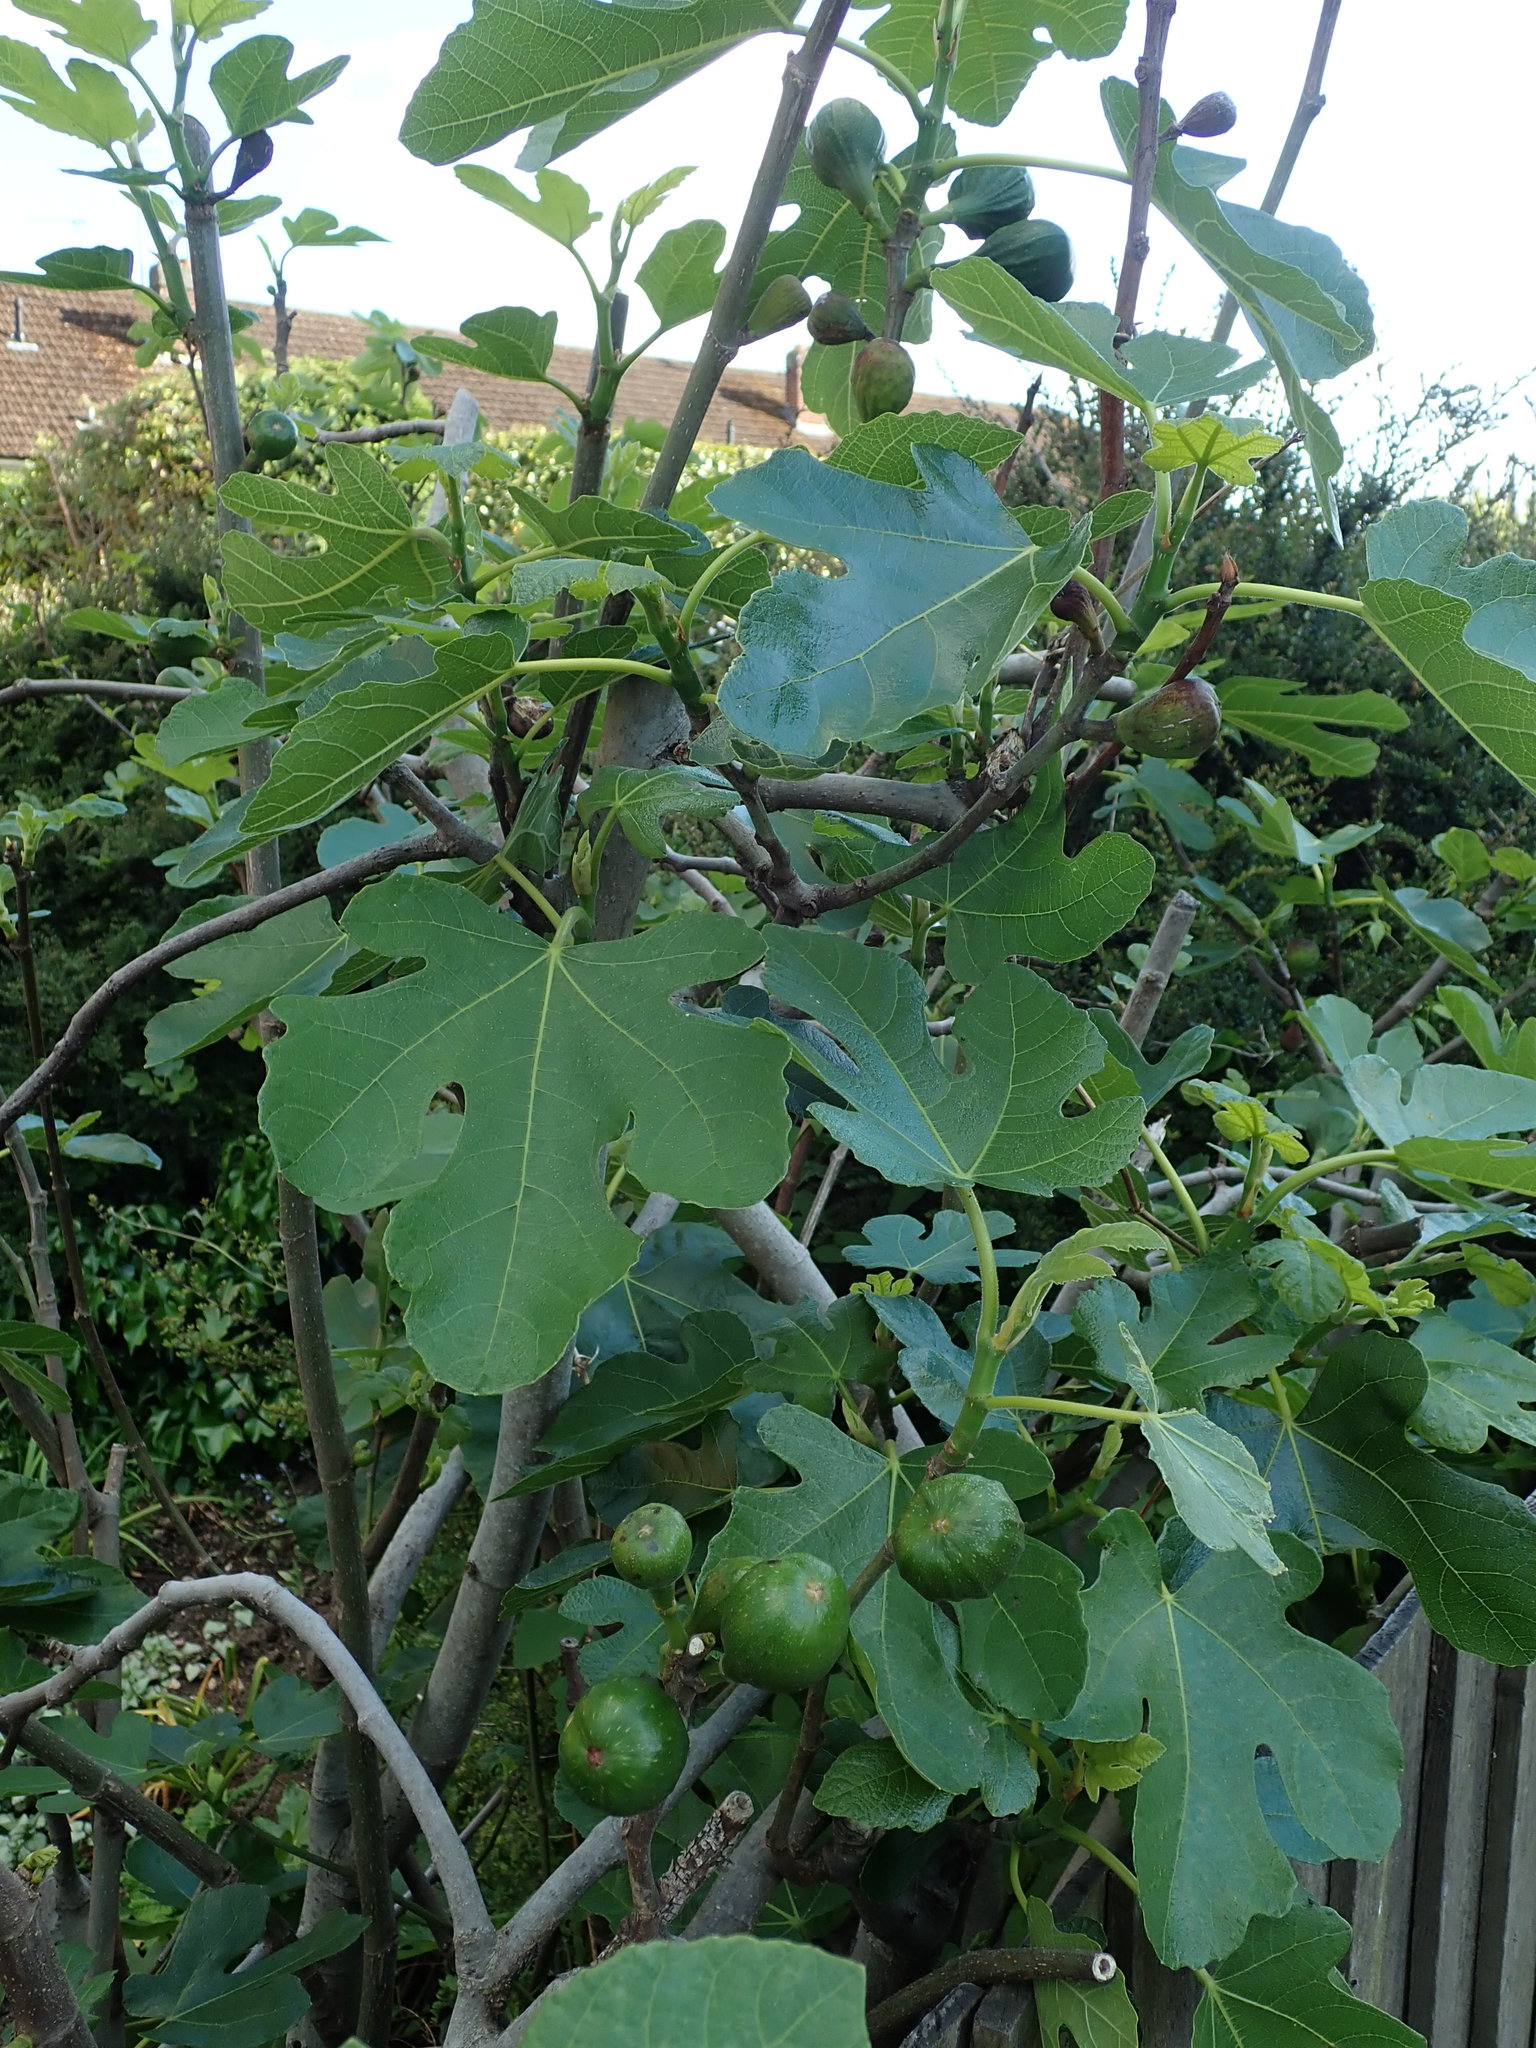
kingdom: Plantae
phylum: Tracheophyta
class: Magnoliopsida
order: Rosales
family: Moraceae
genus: Ficus
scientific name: Ficus carica
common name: Fig
